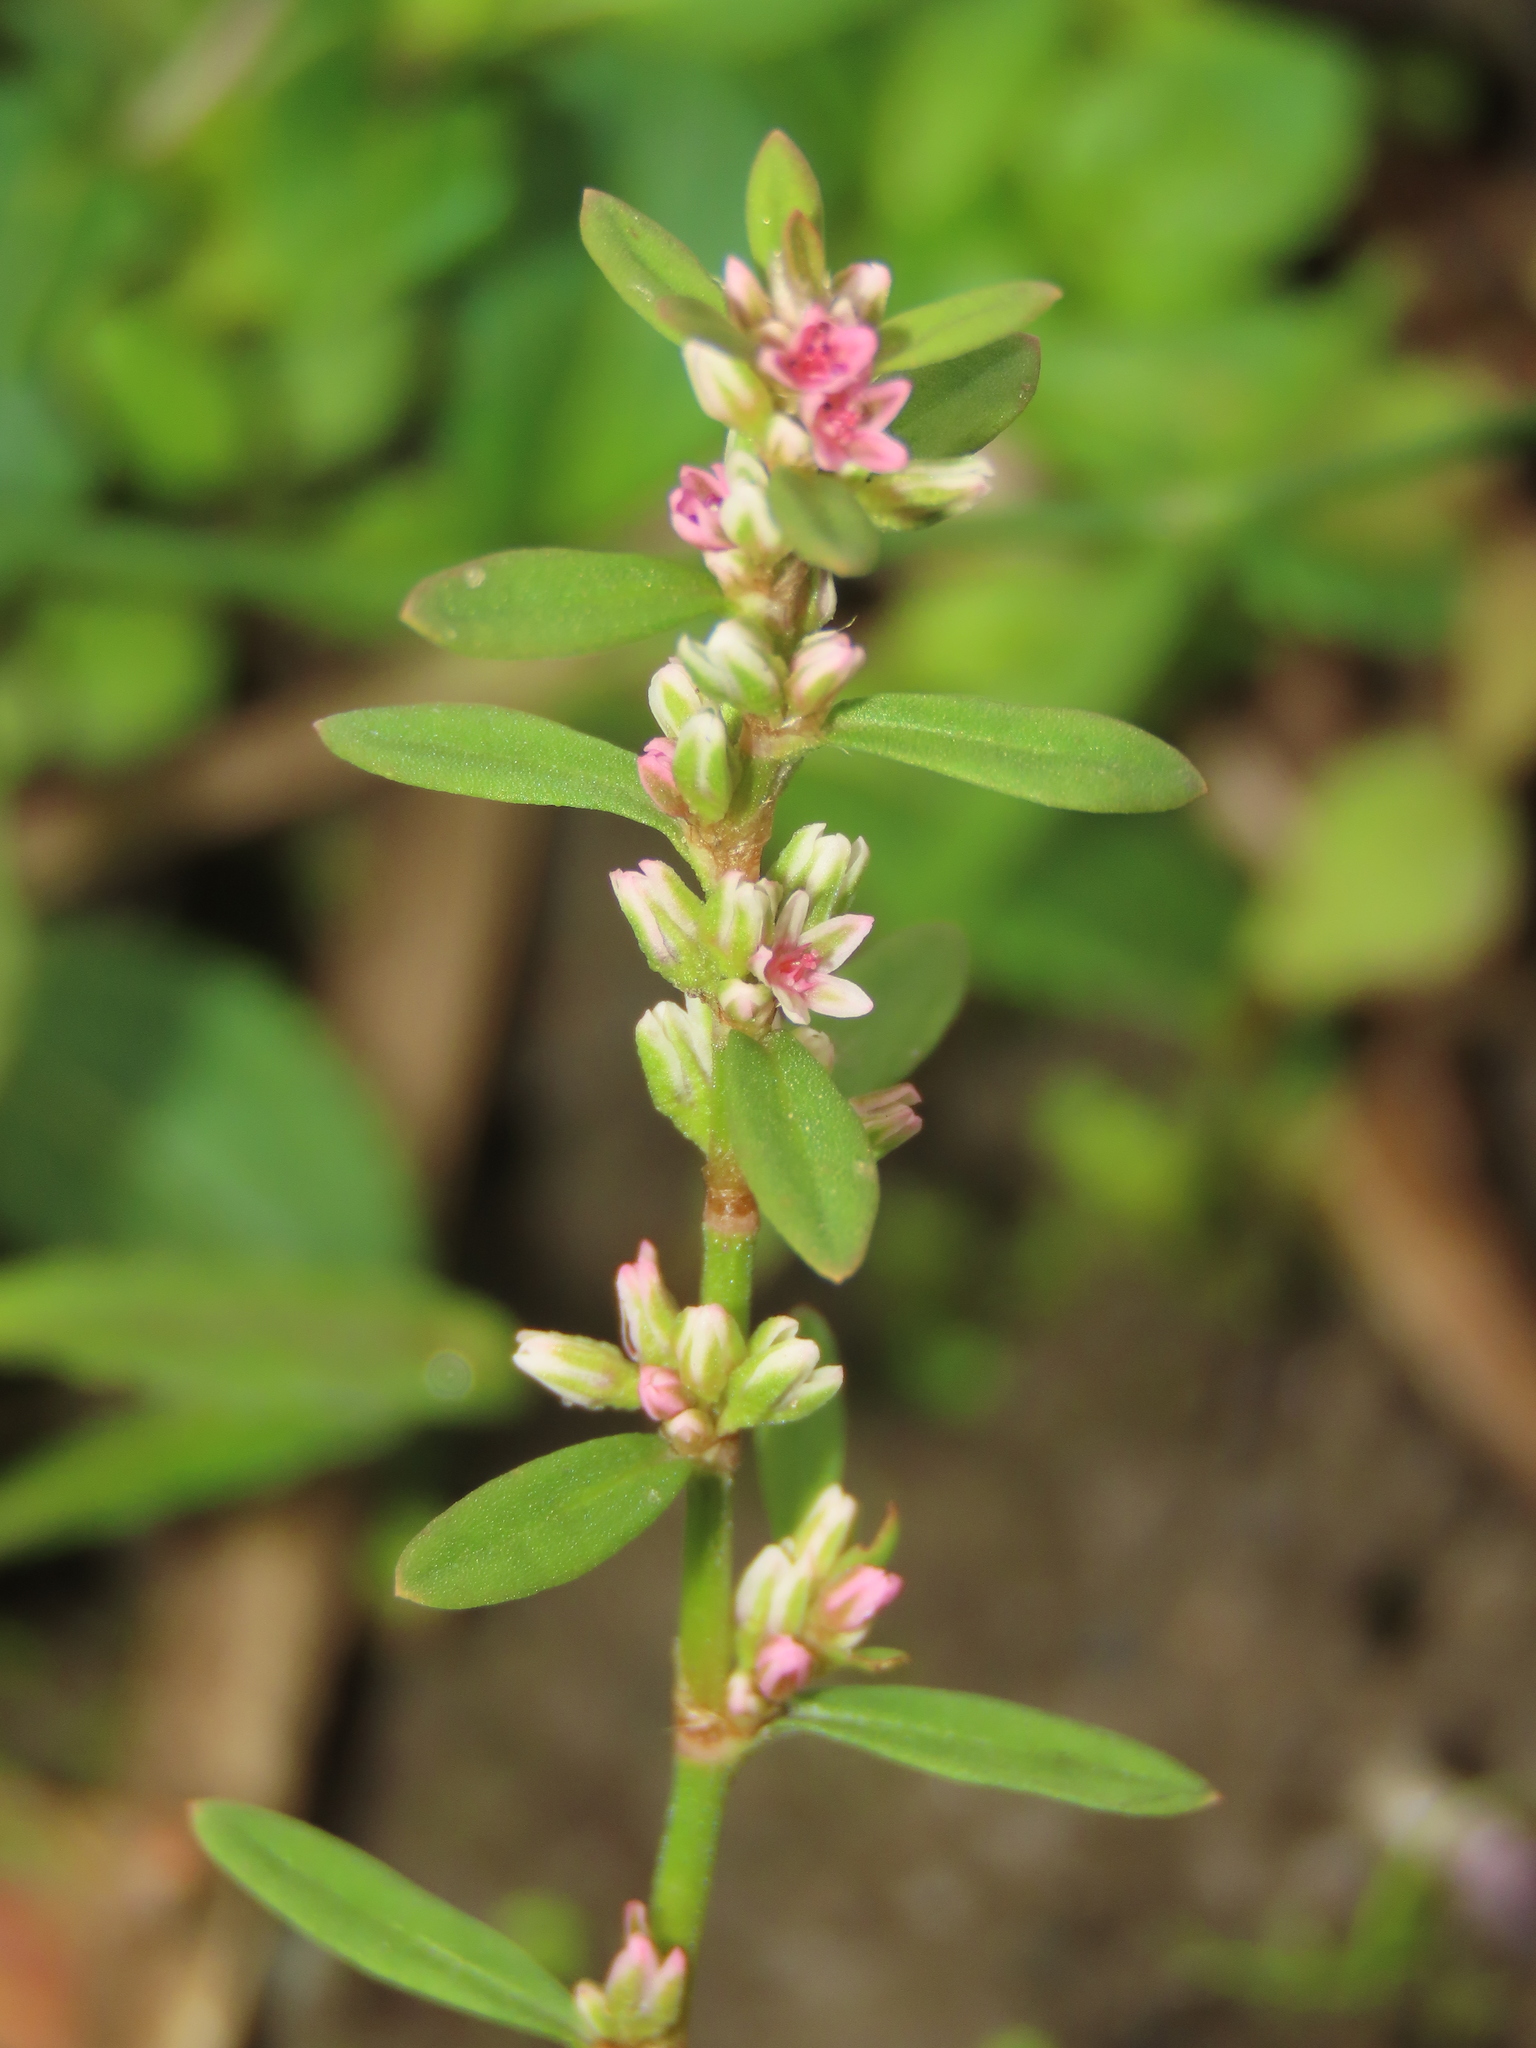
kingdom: Plantae
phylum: Tracheophyta
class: Magnoliopsida
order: Caryophyllales
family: Polygonaceae
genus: Polygonum
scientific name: Polygonum plebeium
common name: Common knotweed
